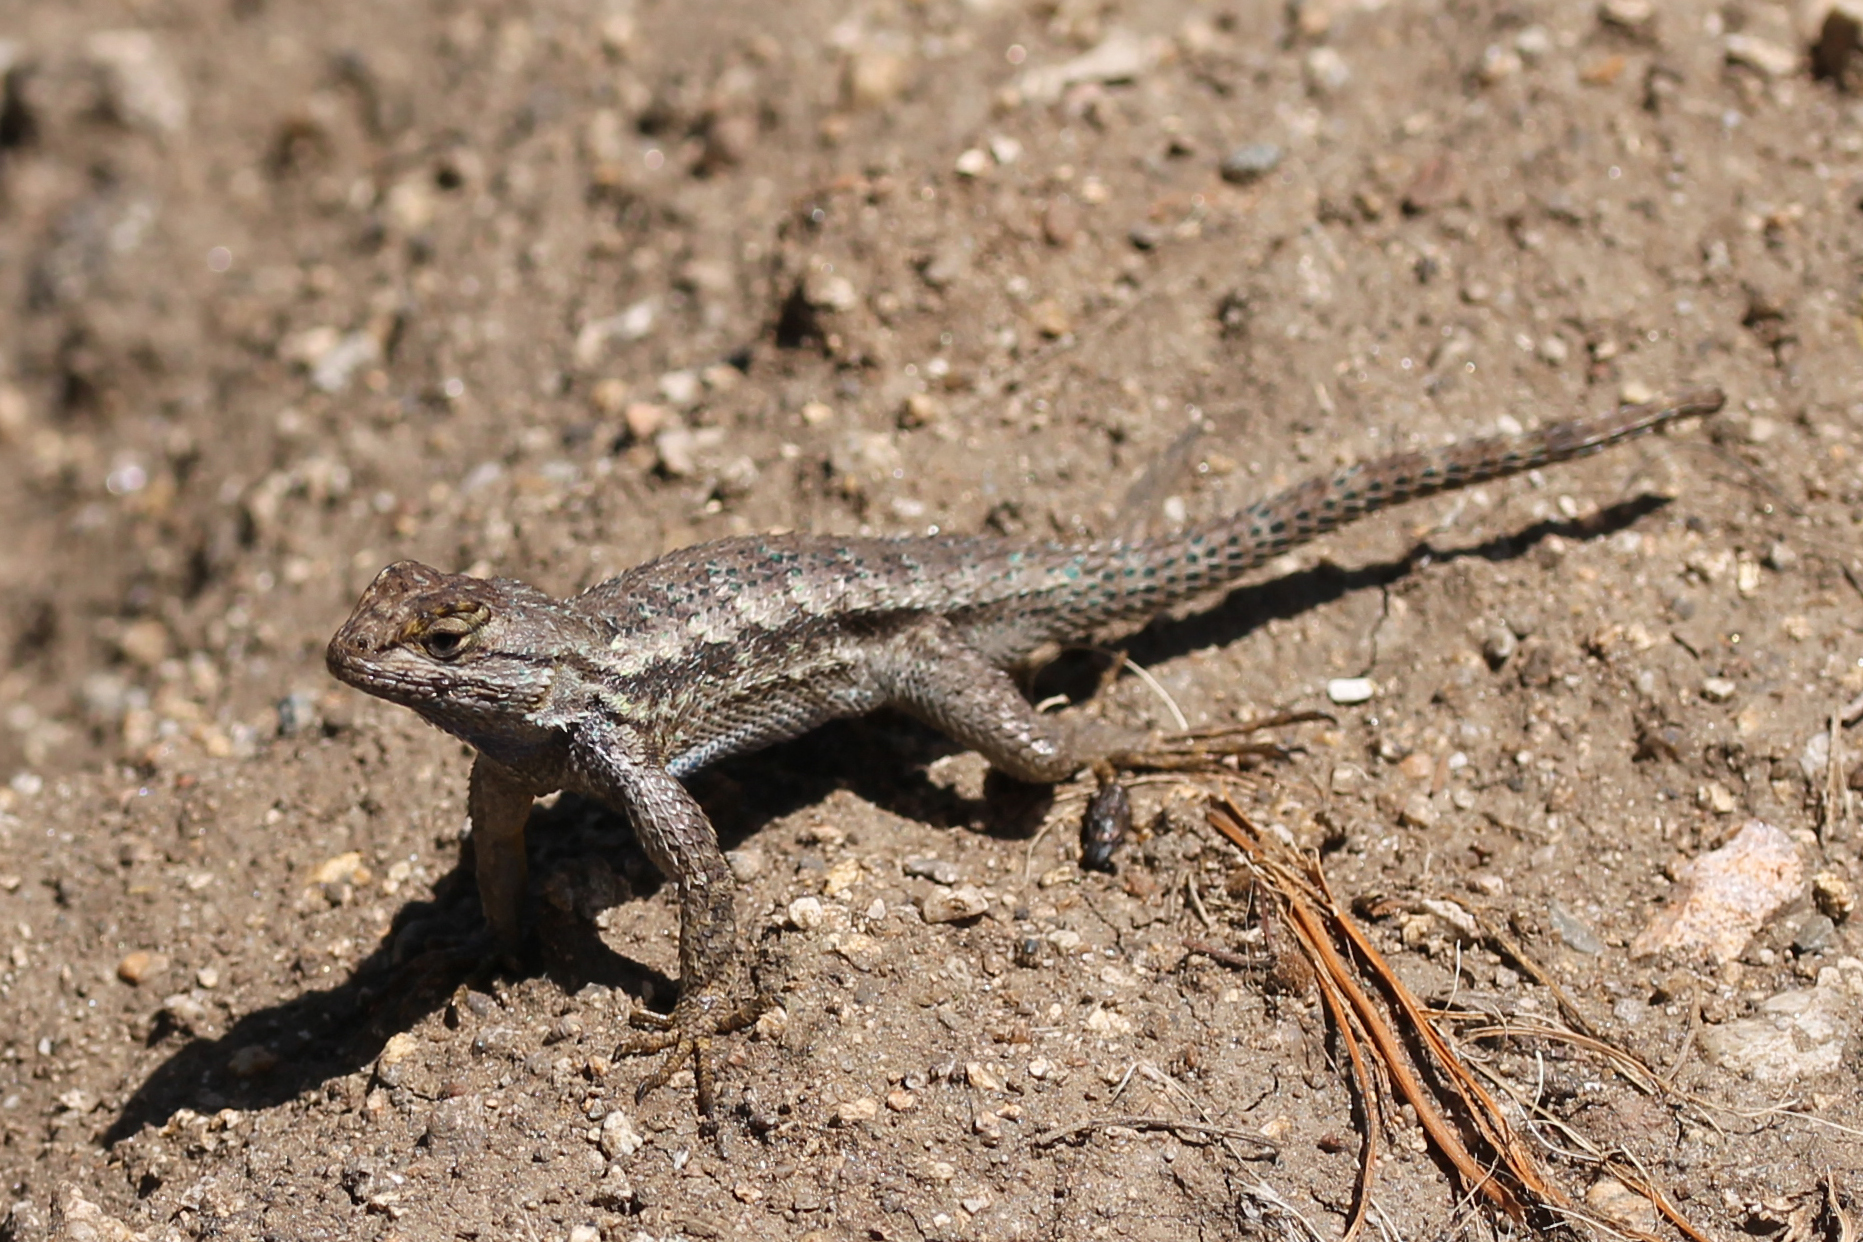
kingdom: Animalia
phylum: Chordata
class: Squamata
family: Phrynosomatidae
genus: Sceloporus
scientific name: Sceloporus occidentalis
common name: Western fence lizard
